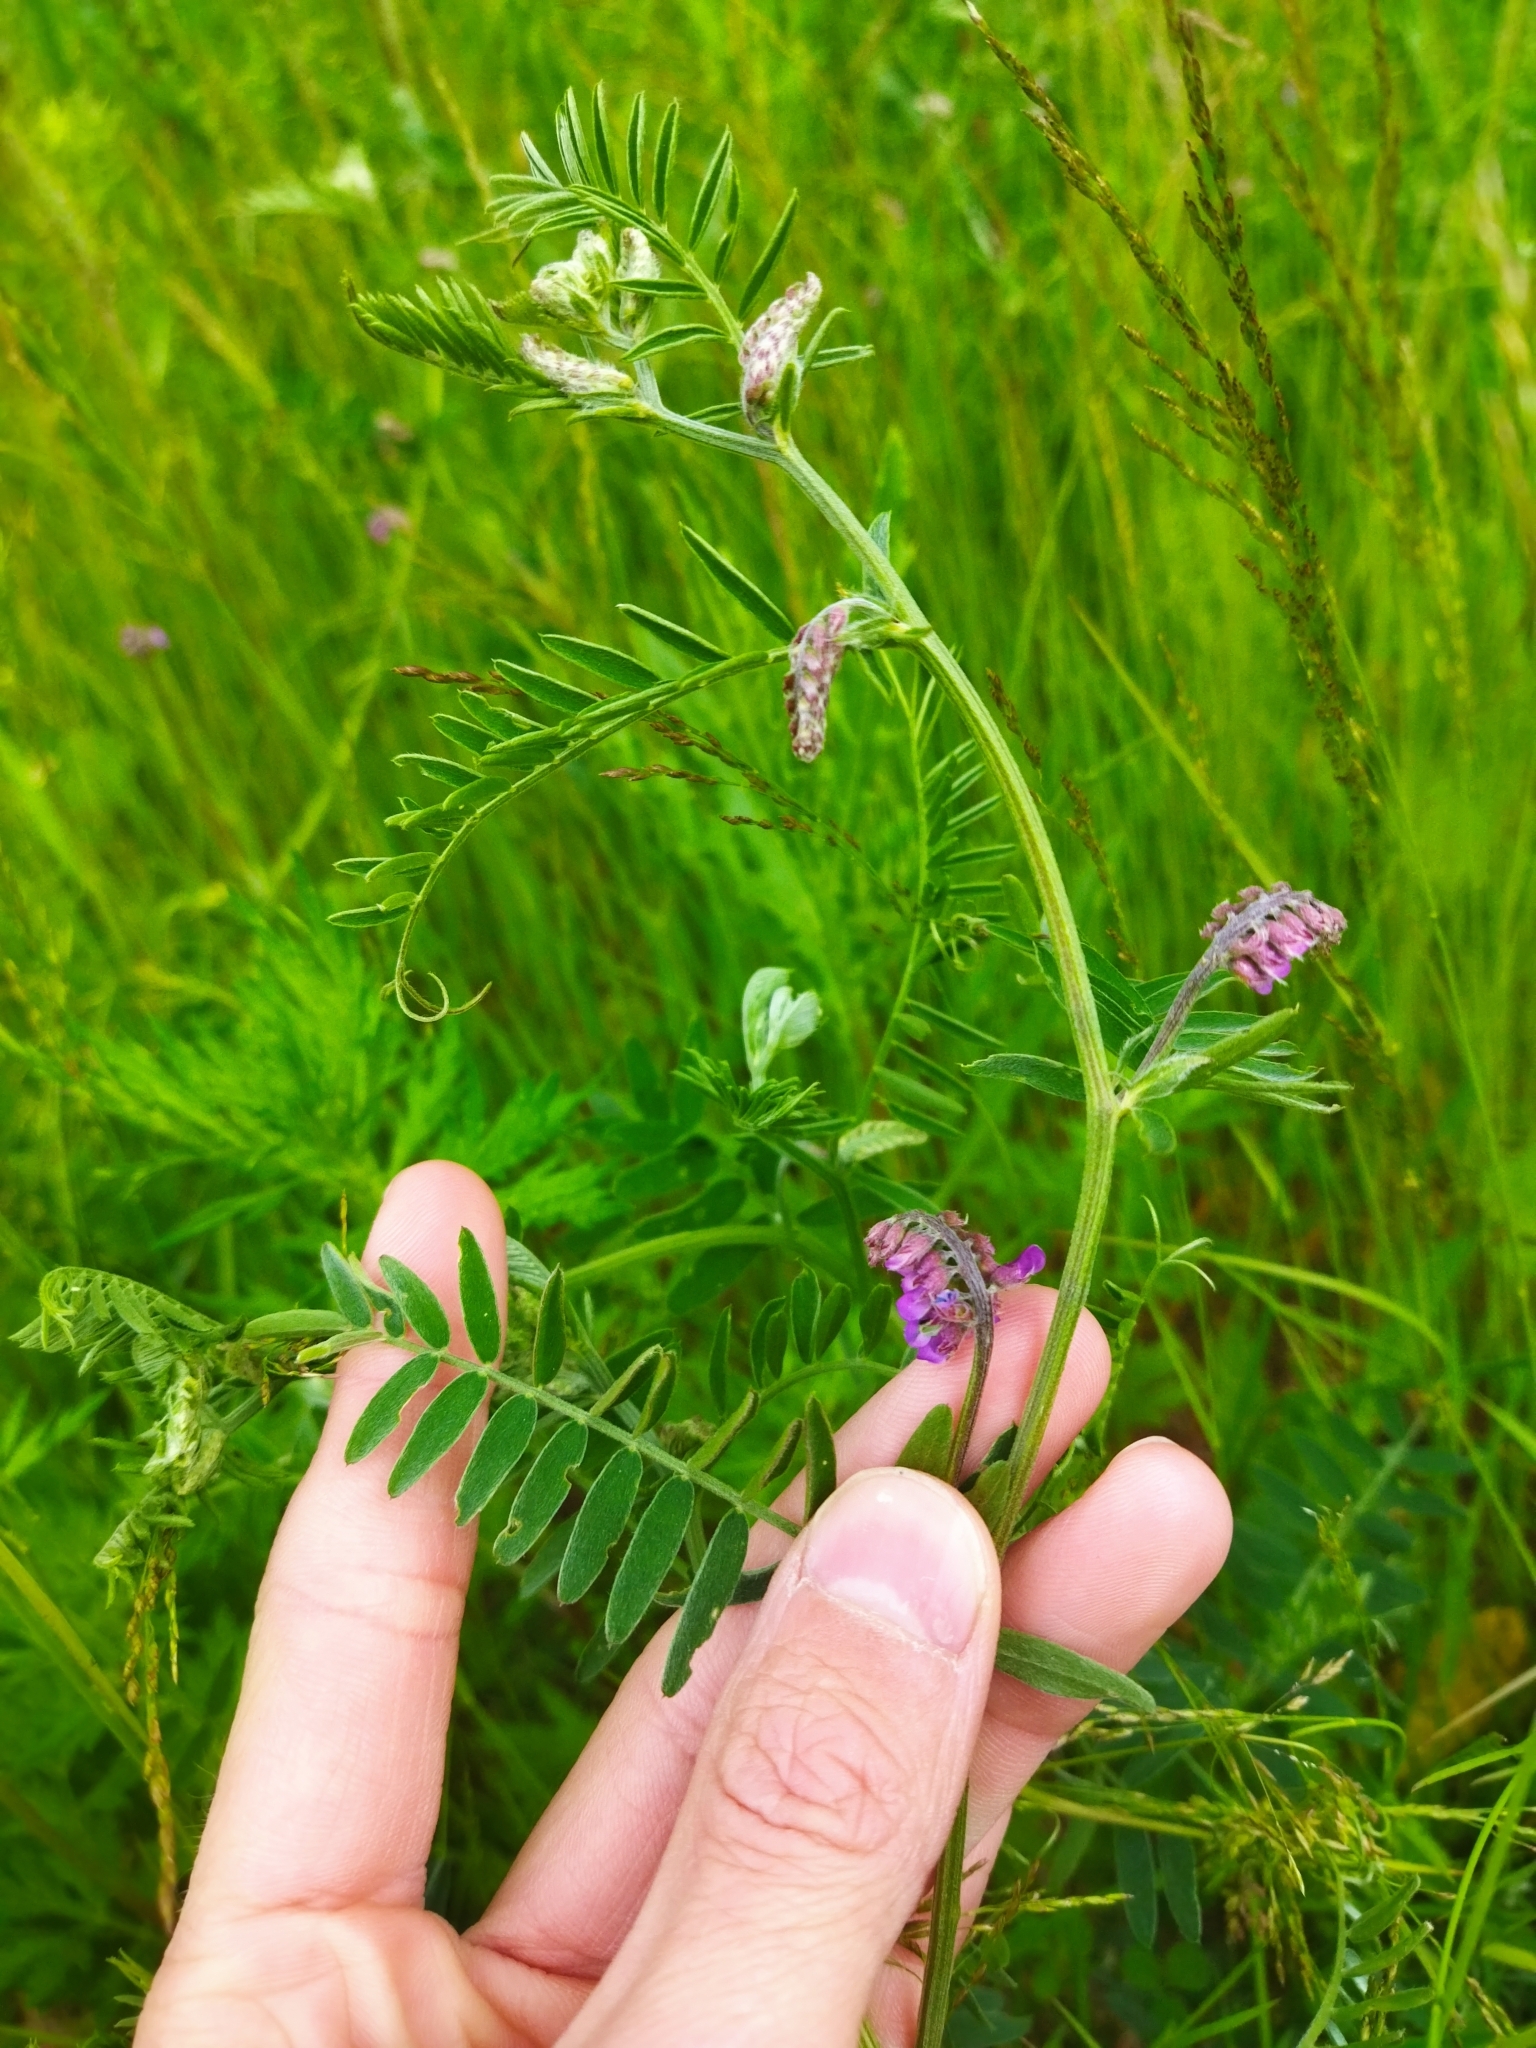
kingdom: Plantae
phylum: Tracheophyta
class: Magnoliopsida
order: Fabales
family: Fabaceae
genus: Vicia
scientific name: Vicia cracca
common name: Bird vetch
